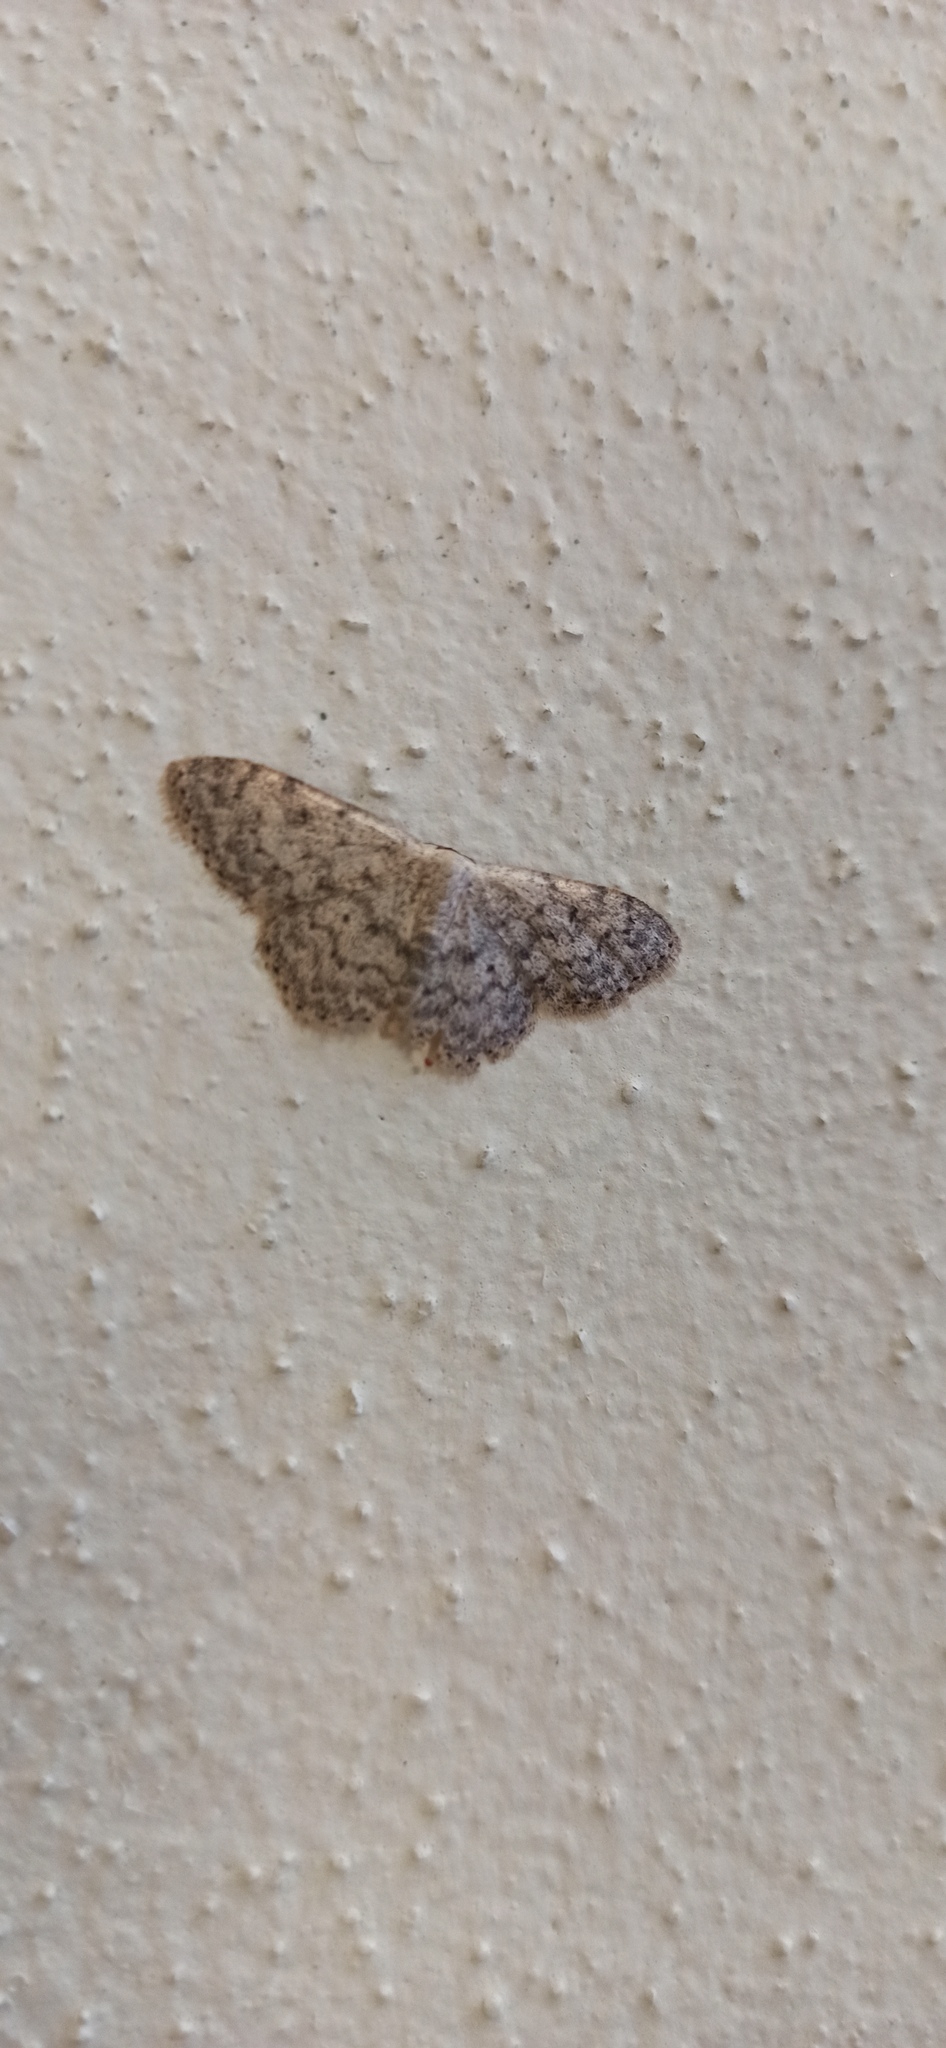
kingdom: Animalia
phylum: Arthropoda
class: Insecta
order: Lepidoptera
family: Geometridae
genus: Scopula
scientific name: Scopula marginepunctata
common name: Mullein wave
